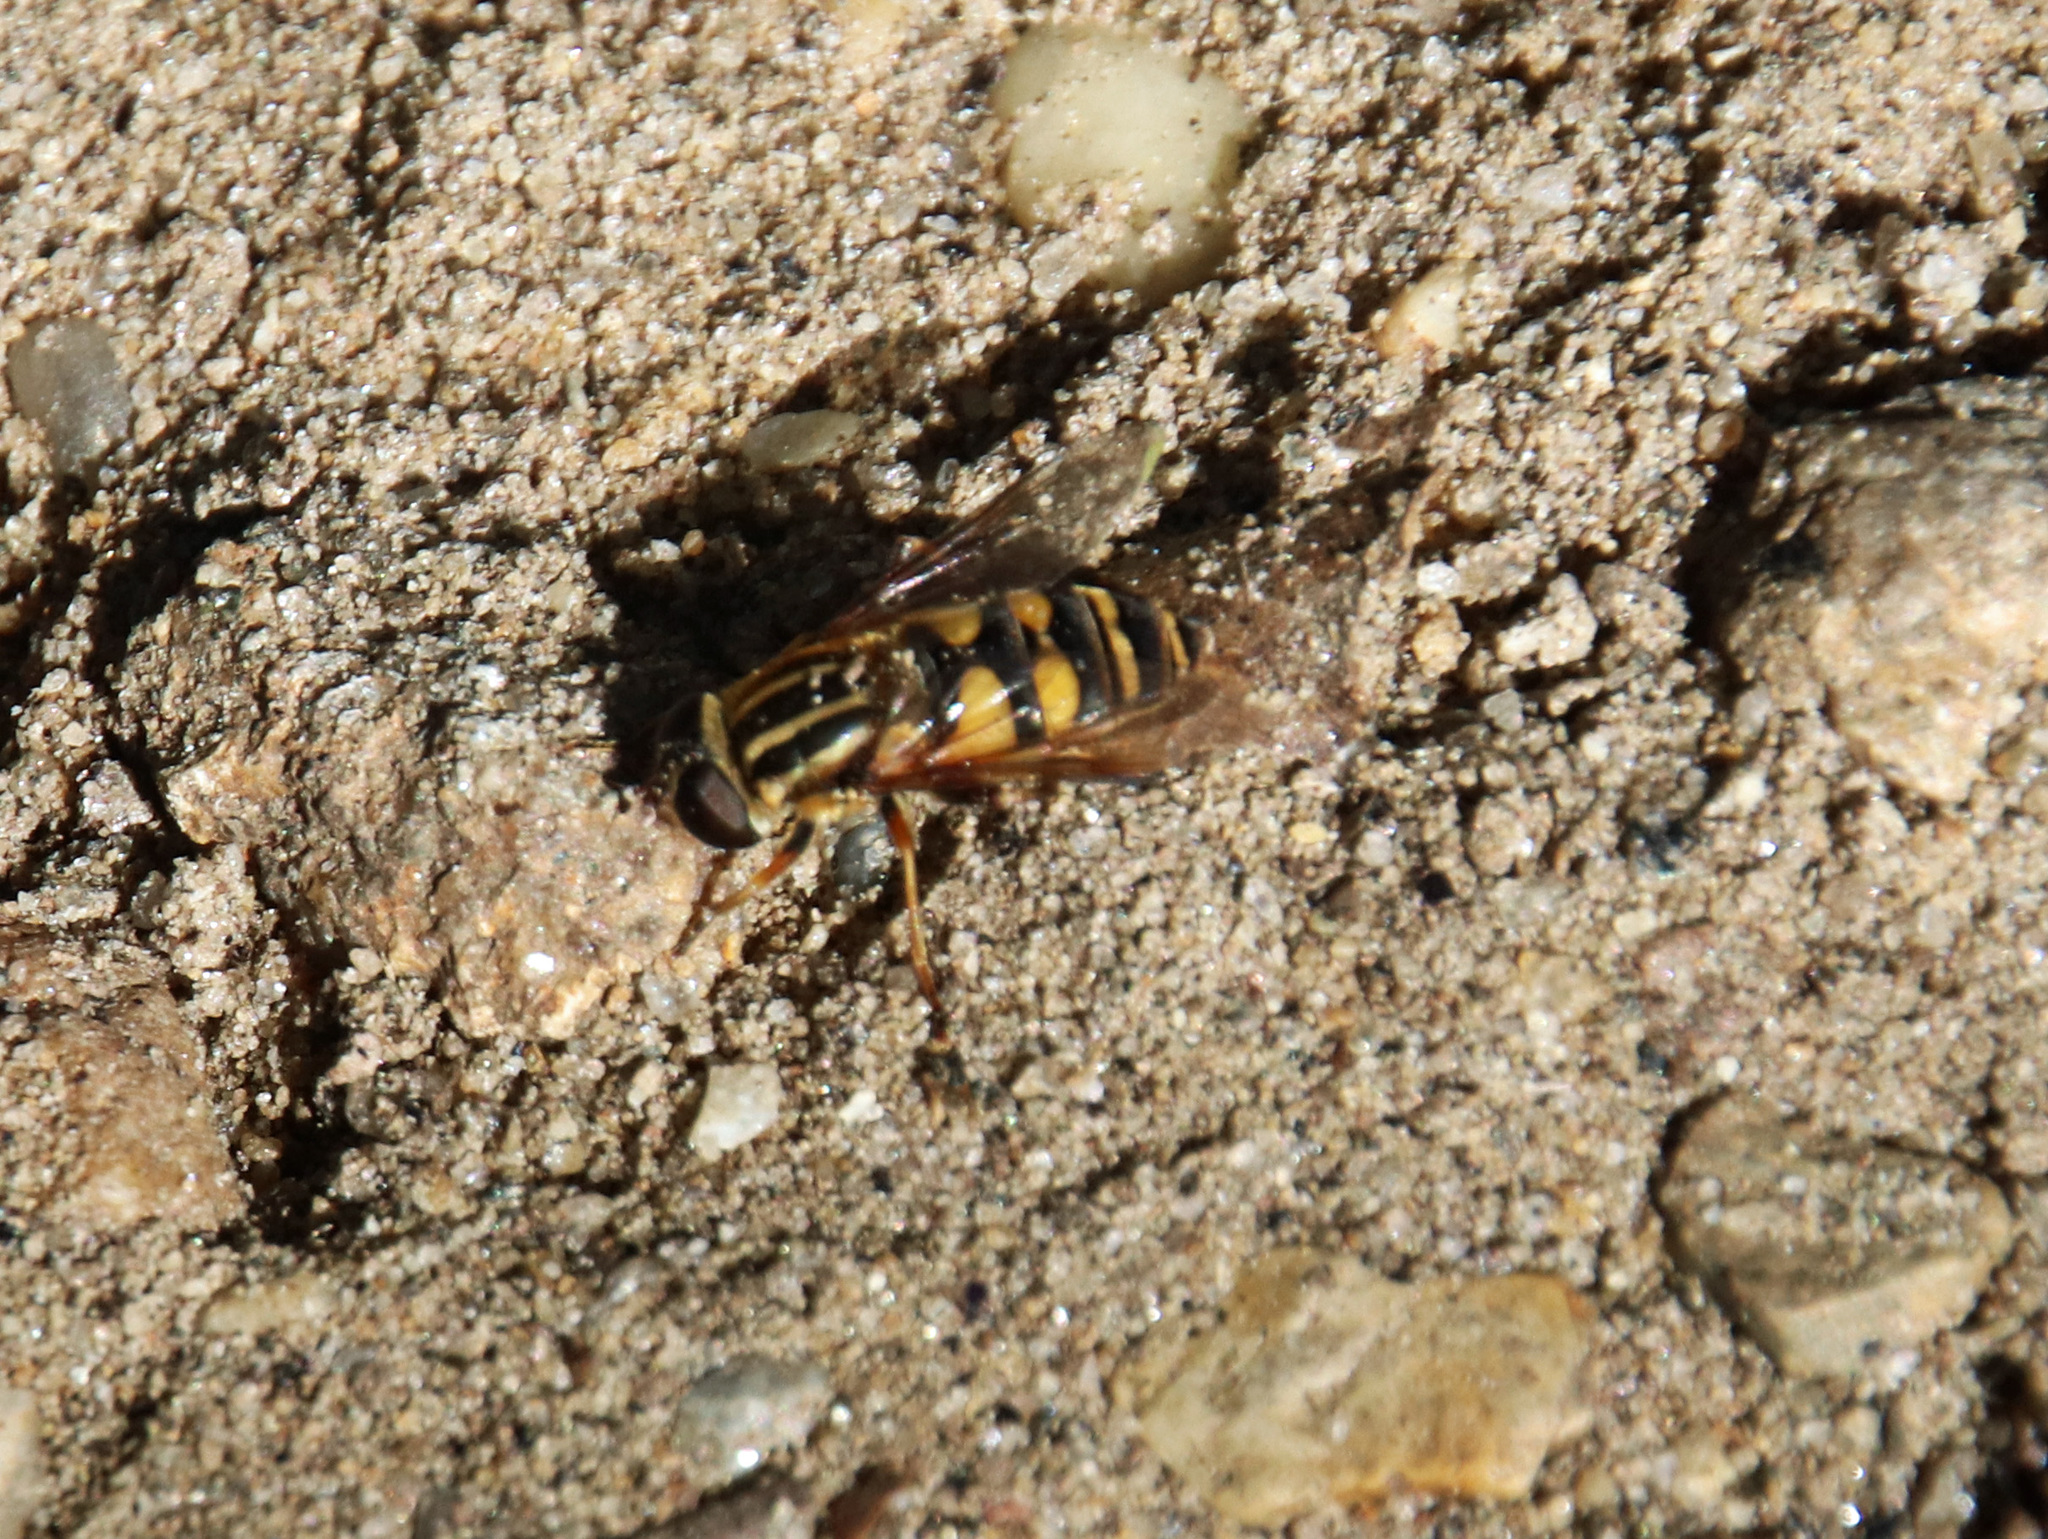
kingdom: Animalia
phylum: Arthropoda
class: Insecta
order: Diptera
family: Syrphidae
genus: Helophilus
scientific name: Helophilus fasciatus
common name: Narrow-headed marsh fly
